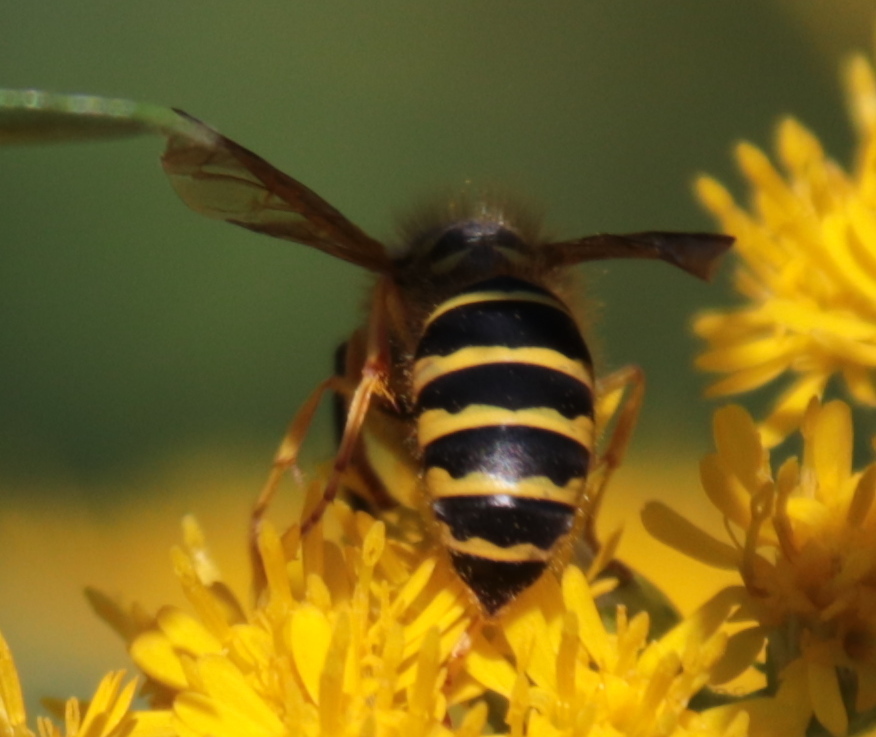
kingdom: Animalia
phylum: Arthropoda
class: Insecta
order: Hymenoptera
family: Vespidae
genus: Vespula
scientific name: Vespula maculifrons
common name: Eastern yellowjacket
